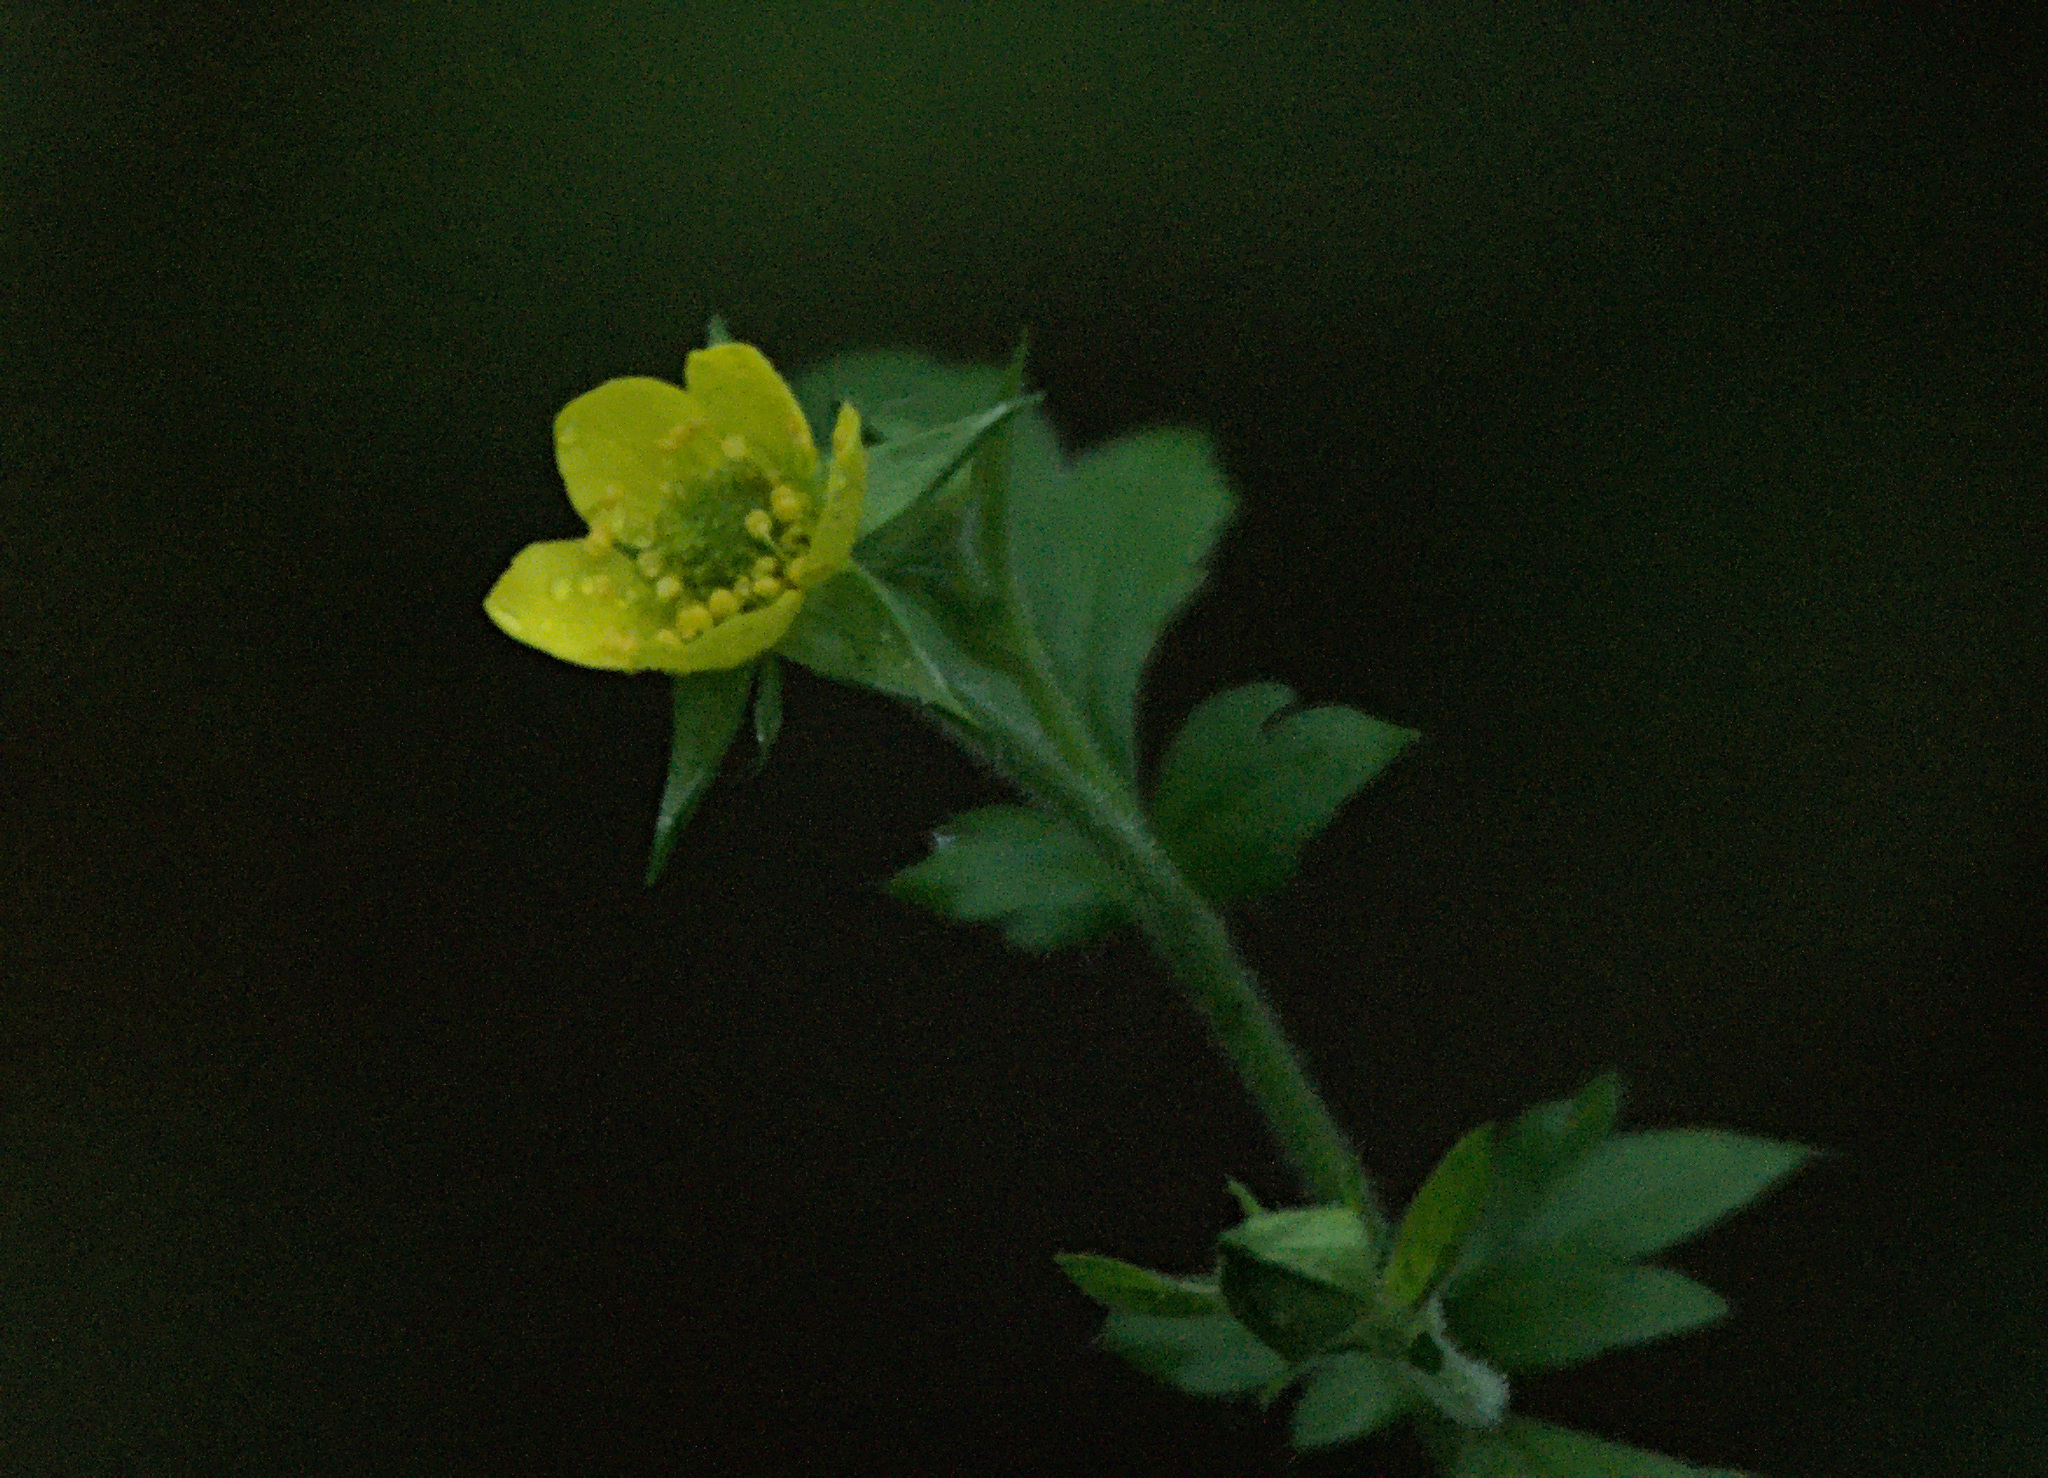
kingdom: Plantae
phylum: Tracheophyta
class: Magnoliopsida
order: Rosales
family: Rosaceae
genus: Geum
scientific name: Geum aleppicum
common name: Yellow avens
